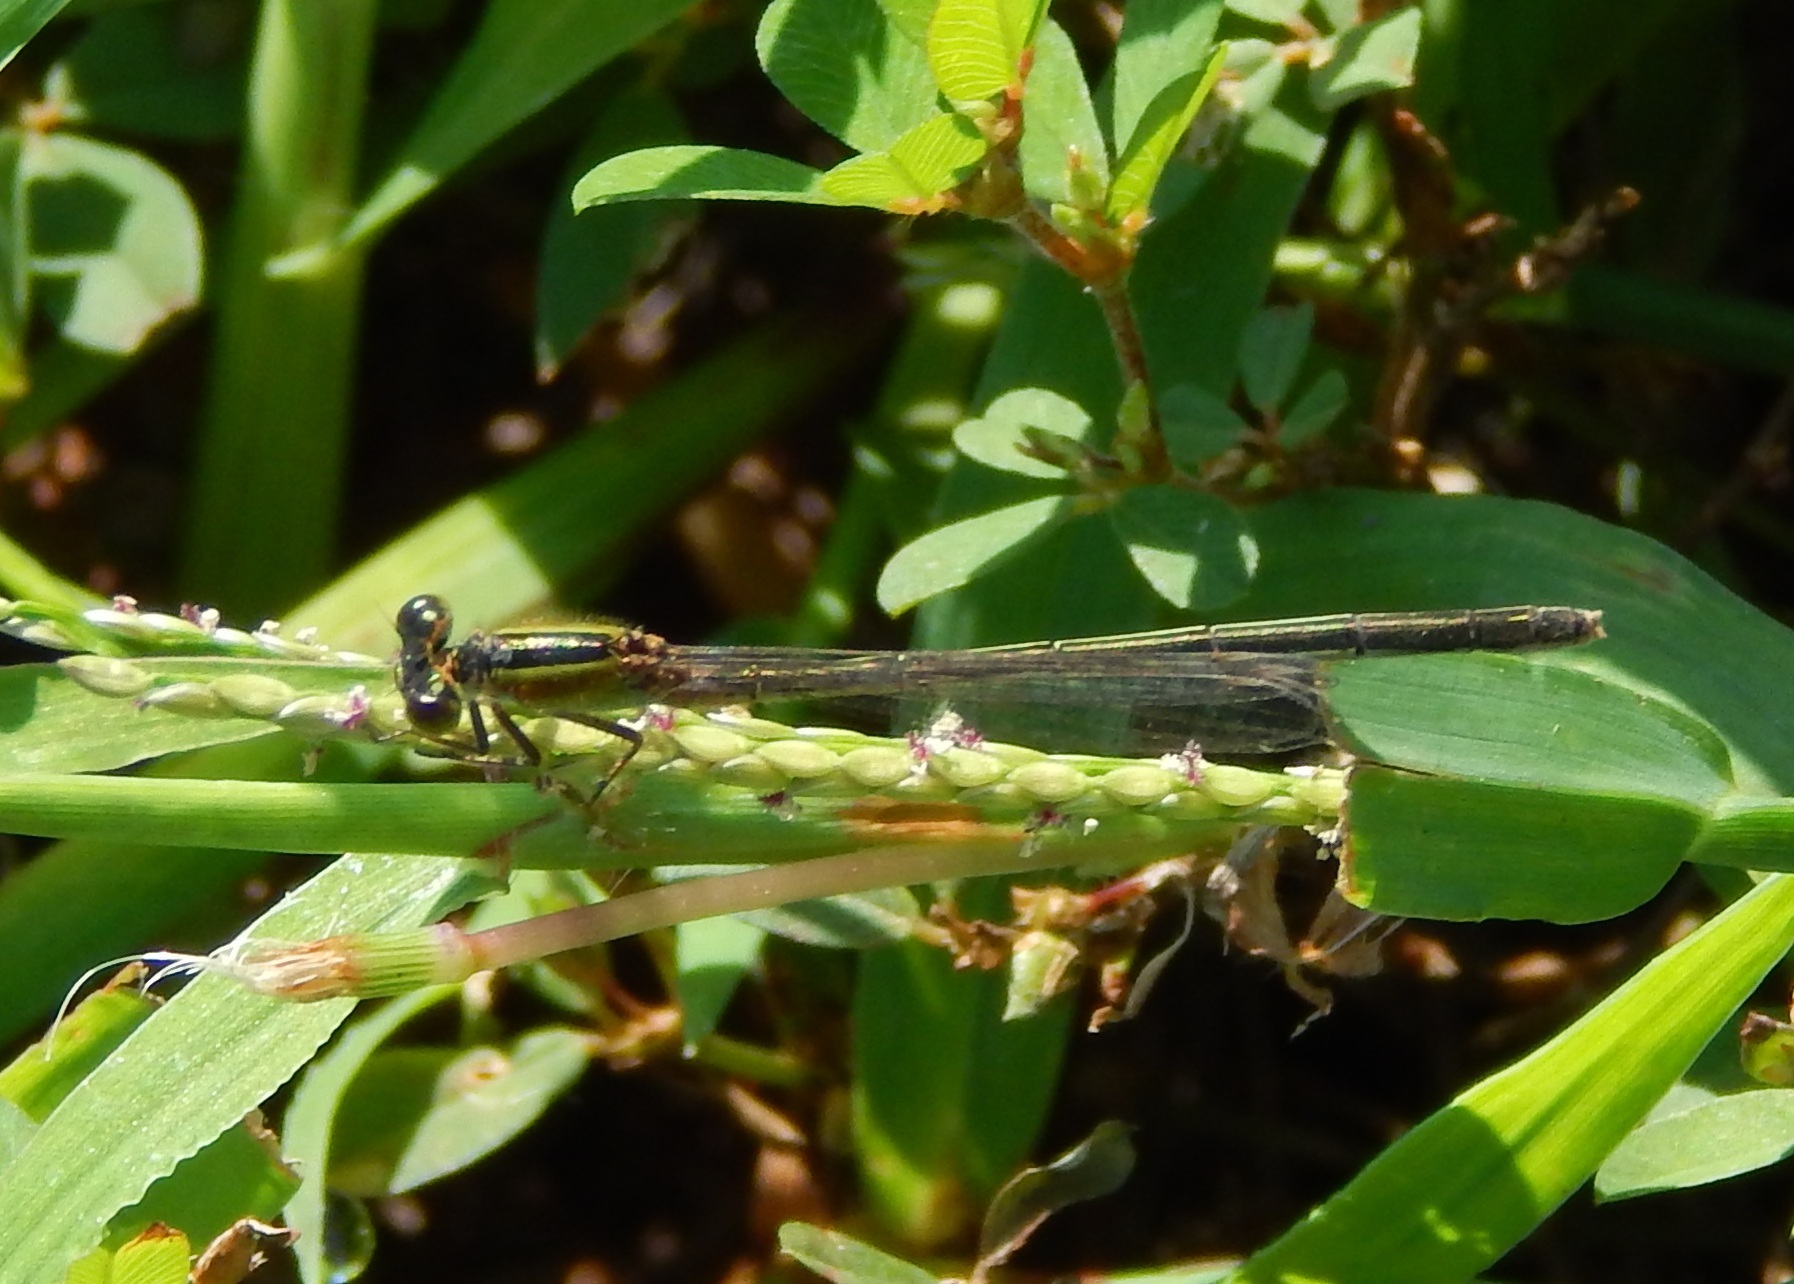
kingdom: Animalia
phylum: Arthropoda
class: Insecta
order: Odonata
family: Coenagrionidae
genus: Ischnura
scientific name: Ischnura ramburii
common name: Rambur's forktail
